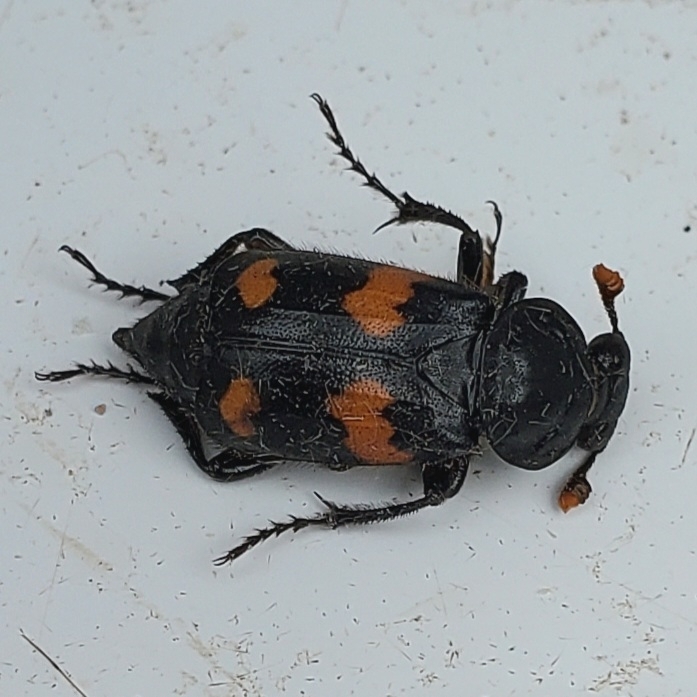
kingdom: Animalia
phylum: Arthropoda
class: Insecta
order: Coleoptera
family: Staphylinidae
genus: Nicrophorus
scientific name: Nicrophorus orbicollis
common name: Roundneck sexton beetle
